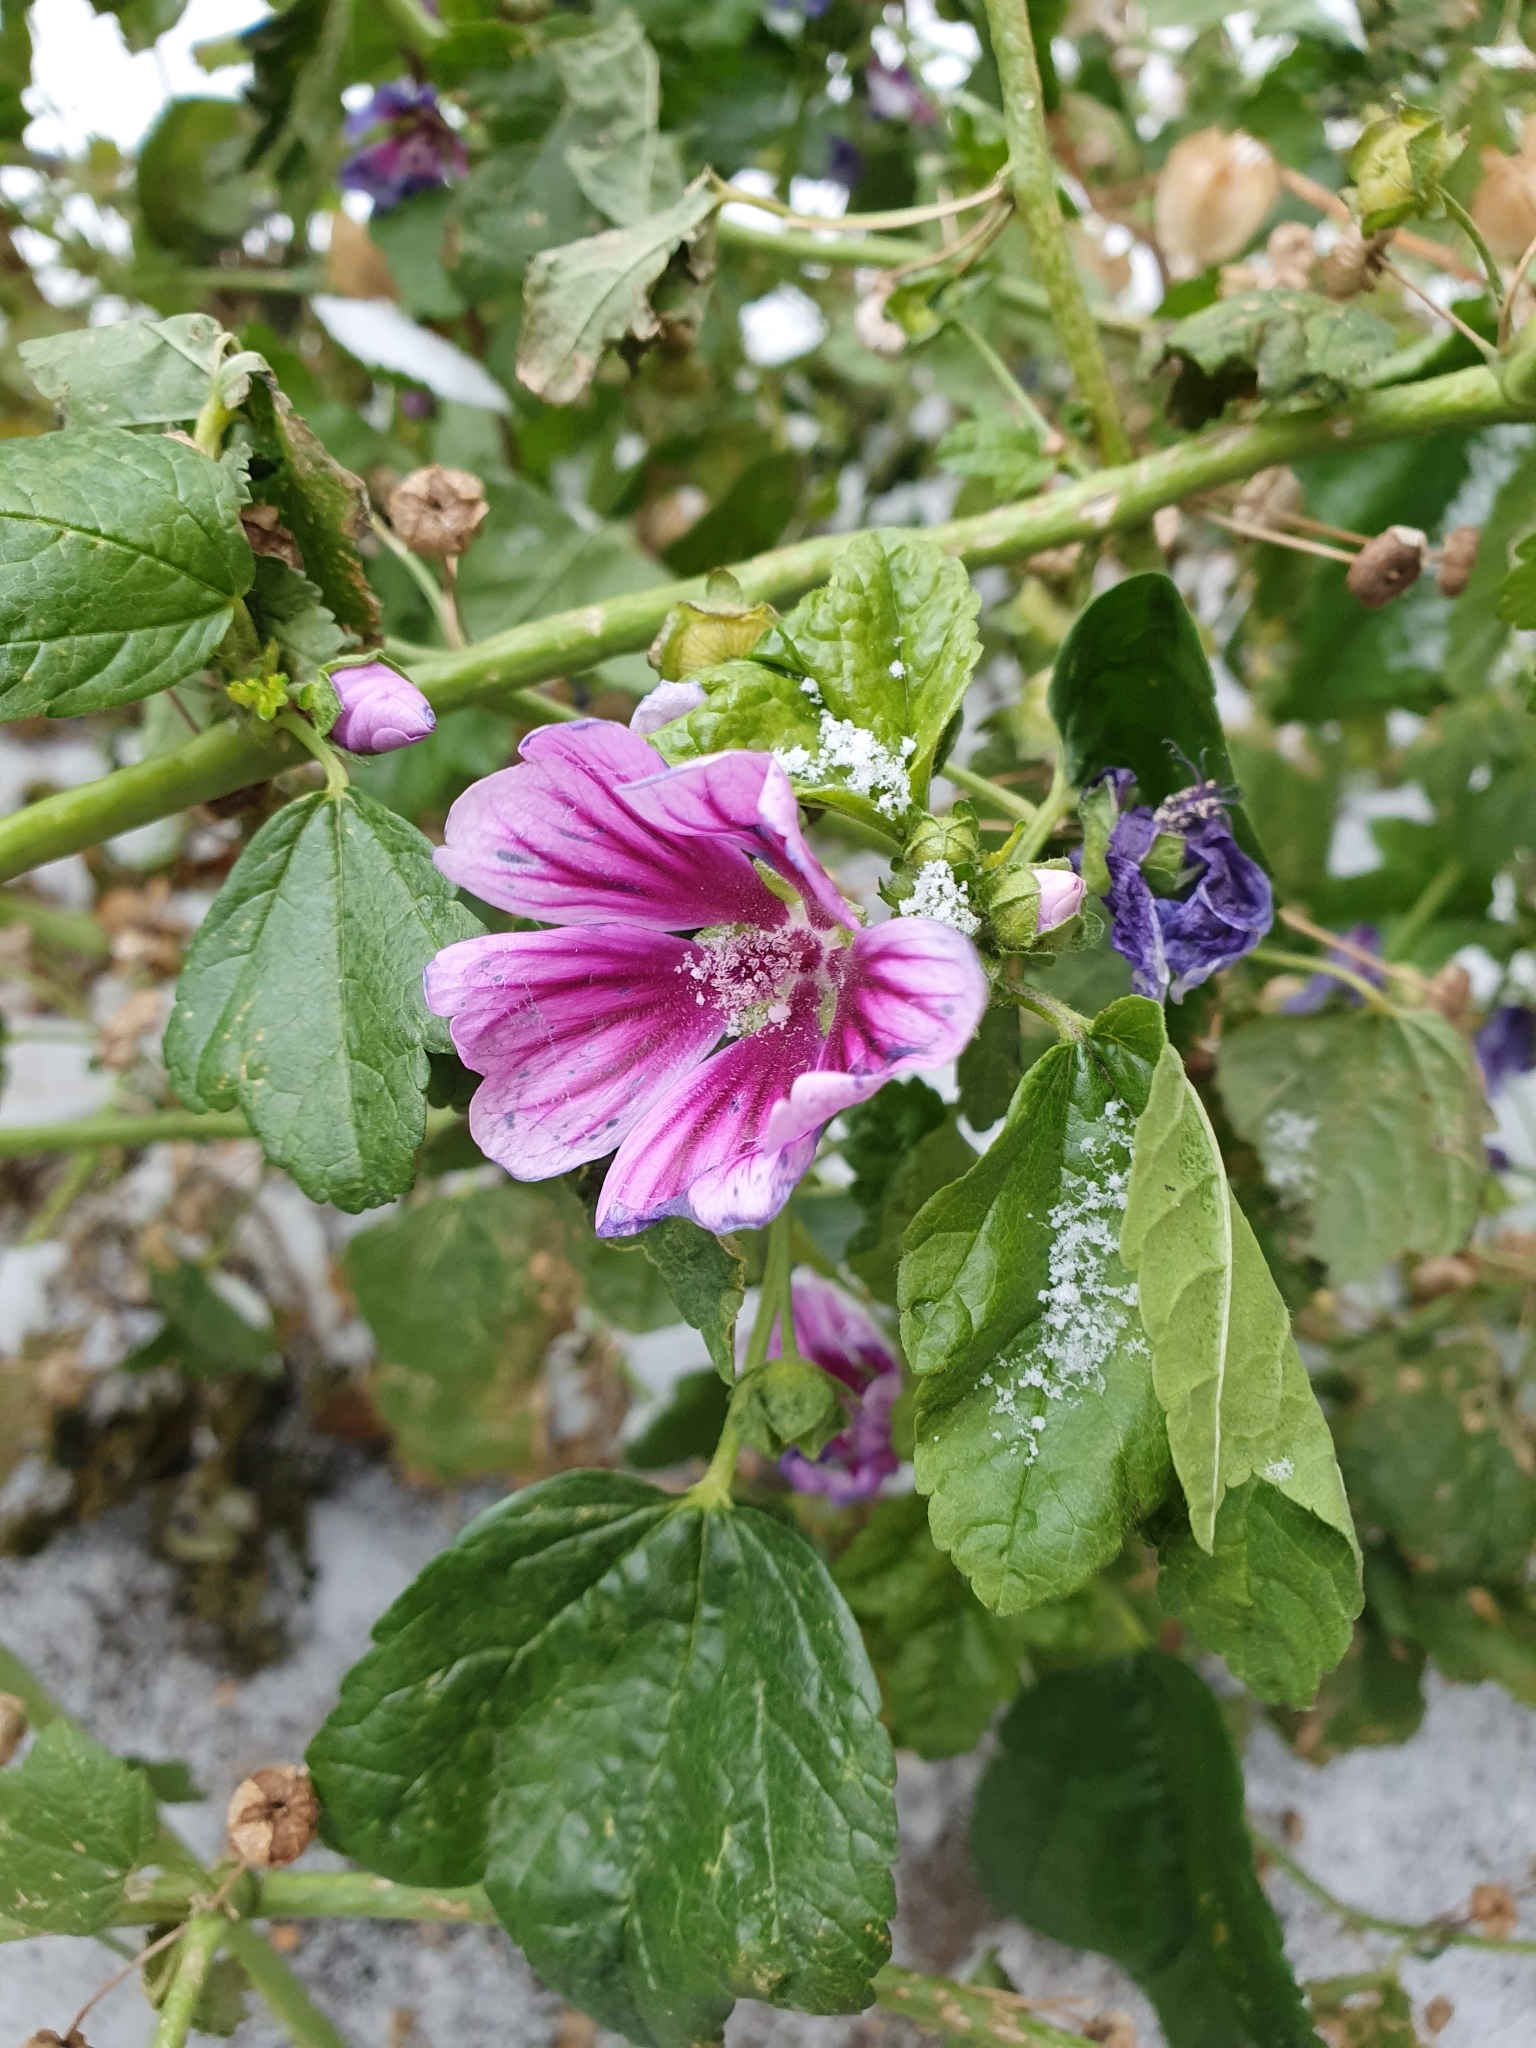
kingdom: Plantae
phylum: Tracheophyta
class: Magnoliopsida
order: Malvales
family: Malvaceae
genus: Malva
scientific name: Malva sylvestris
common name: Common mallow
